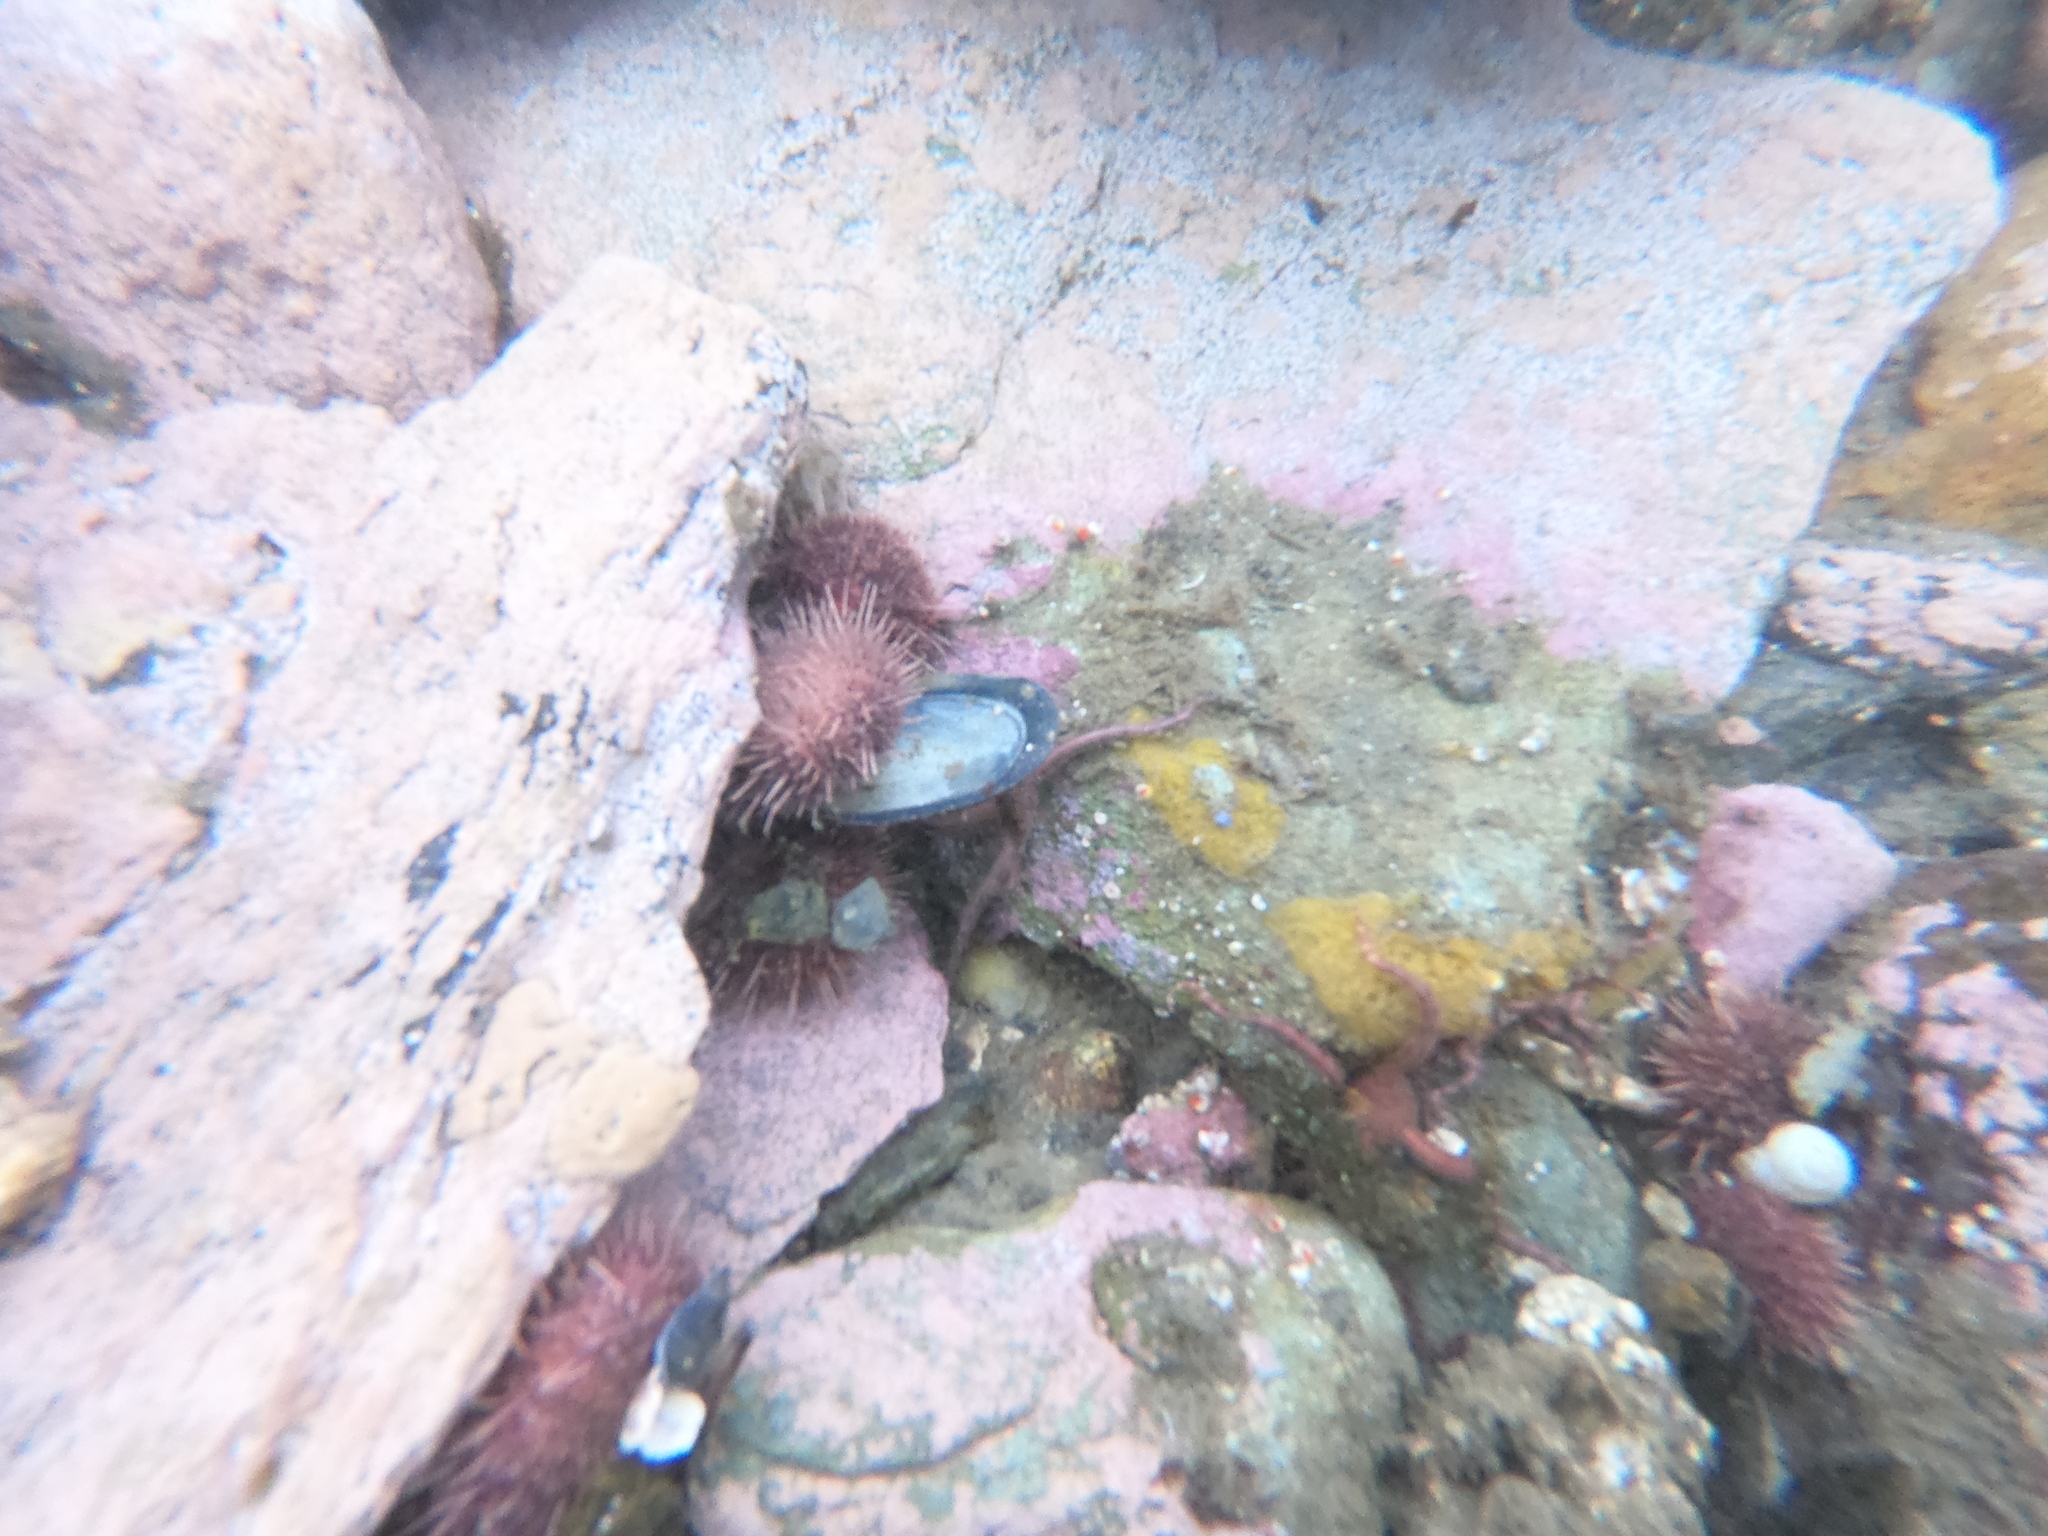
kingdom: Animalia
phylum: Echinodermata
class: Echinoidea
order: Camarodonta
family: Temnopleuridae
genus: Pseudechinus
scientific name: Pseudechinus magellanicus
